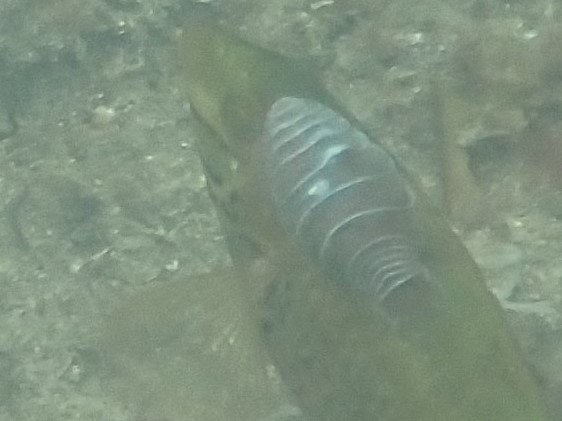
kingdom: Animalia
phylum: Arthropoda
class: Malacostraca
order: Isopoda
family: Cymothoidae
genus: Anilocra
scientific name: Anilocra
